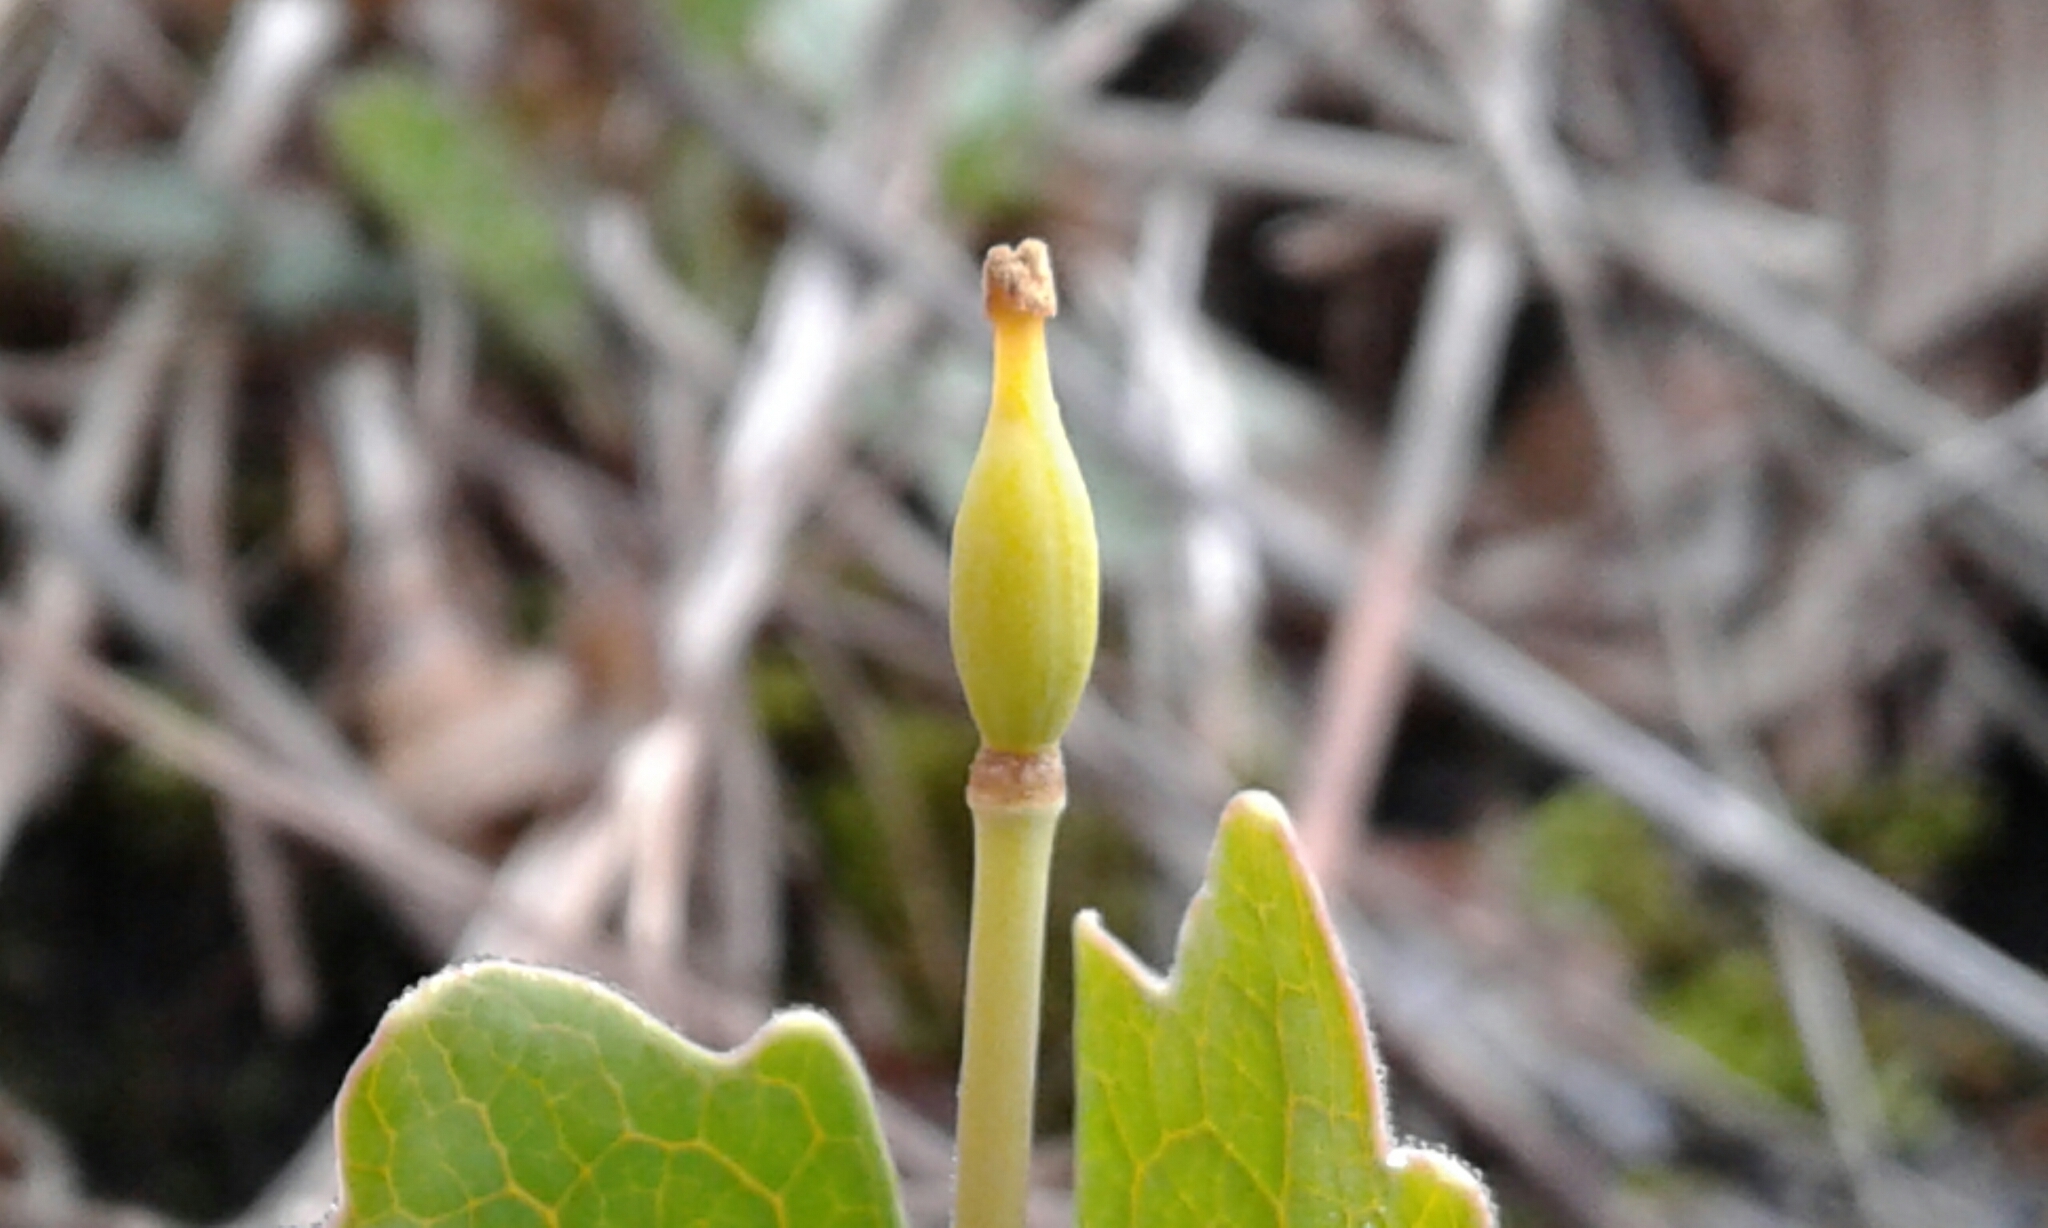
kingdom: Plantae
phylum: Tracheophyta
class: Magnoliopsida
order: Ranunculales
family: Papaveraceae
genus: Sanguinaria
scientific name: Sanguinaria canadensis
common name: Bloodroot
